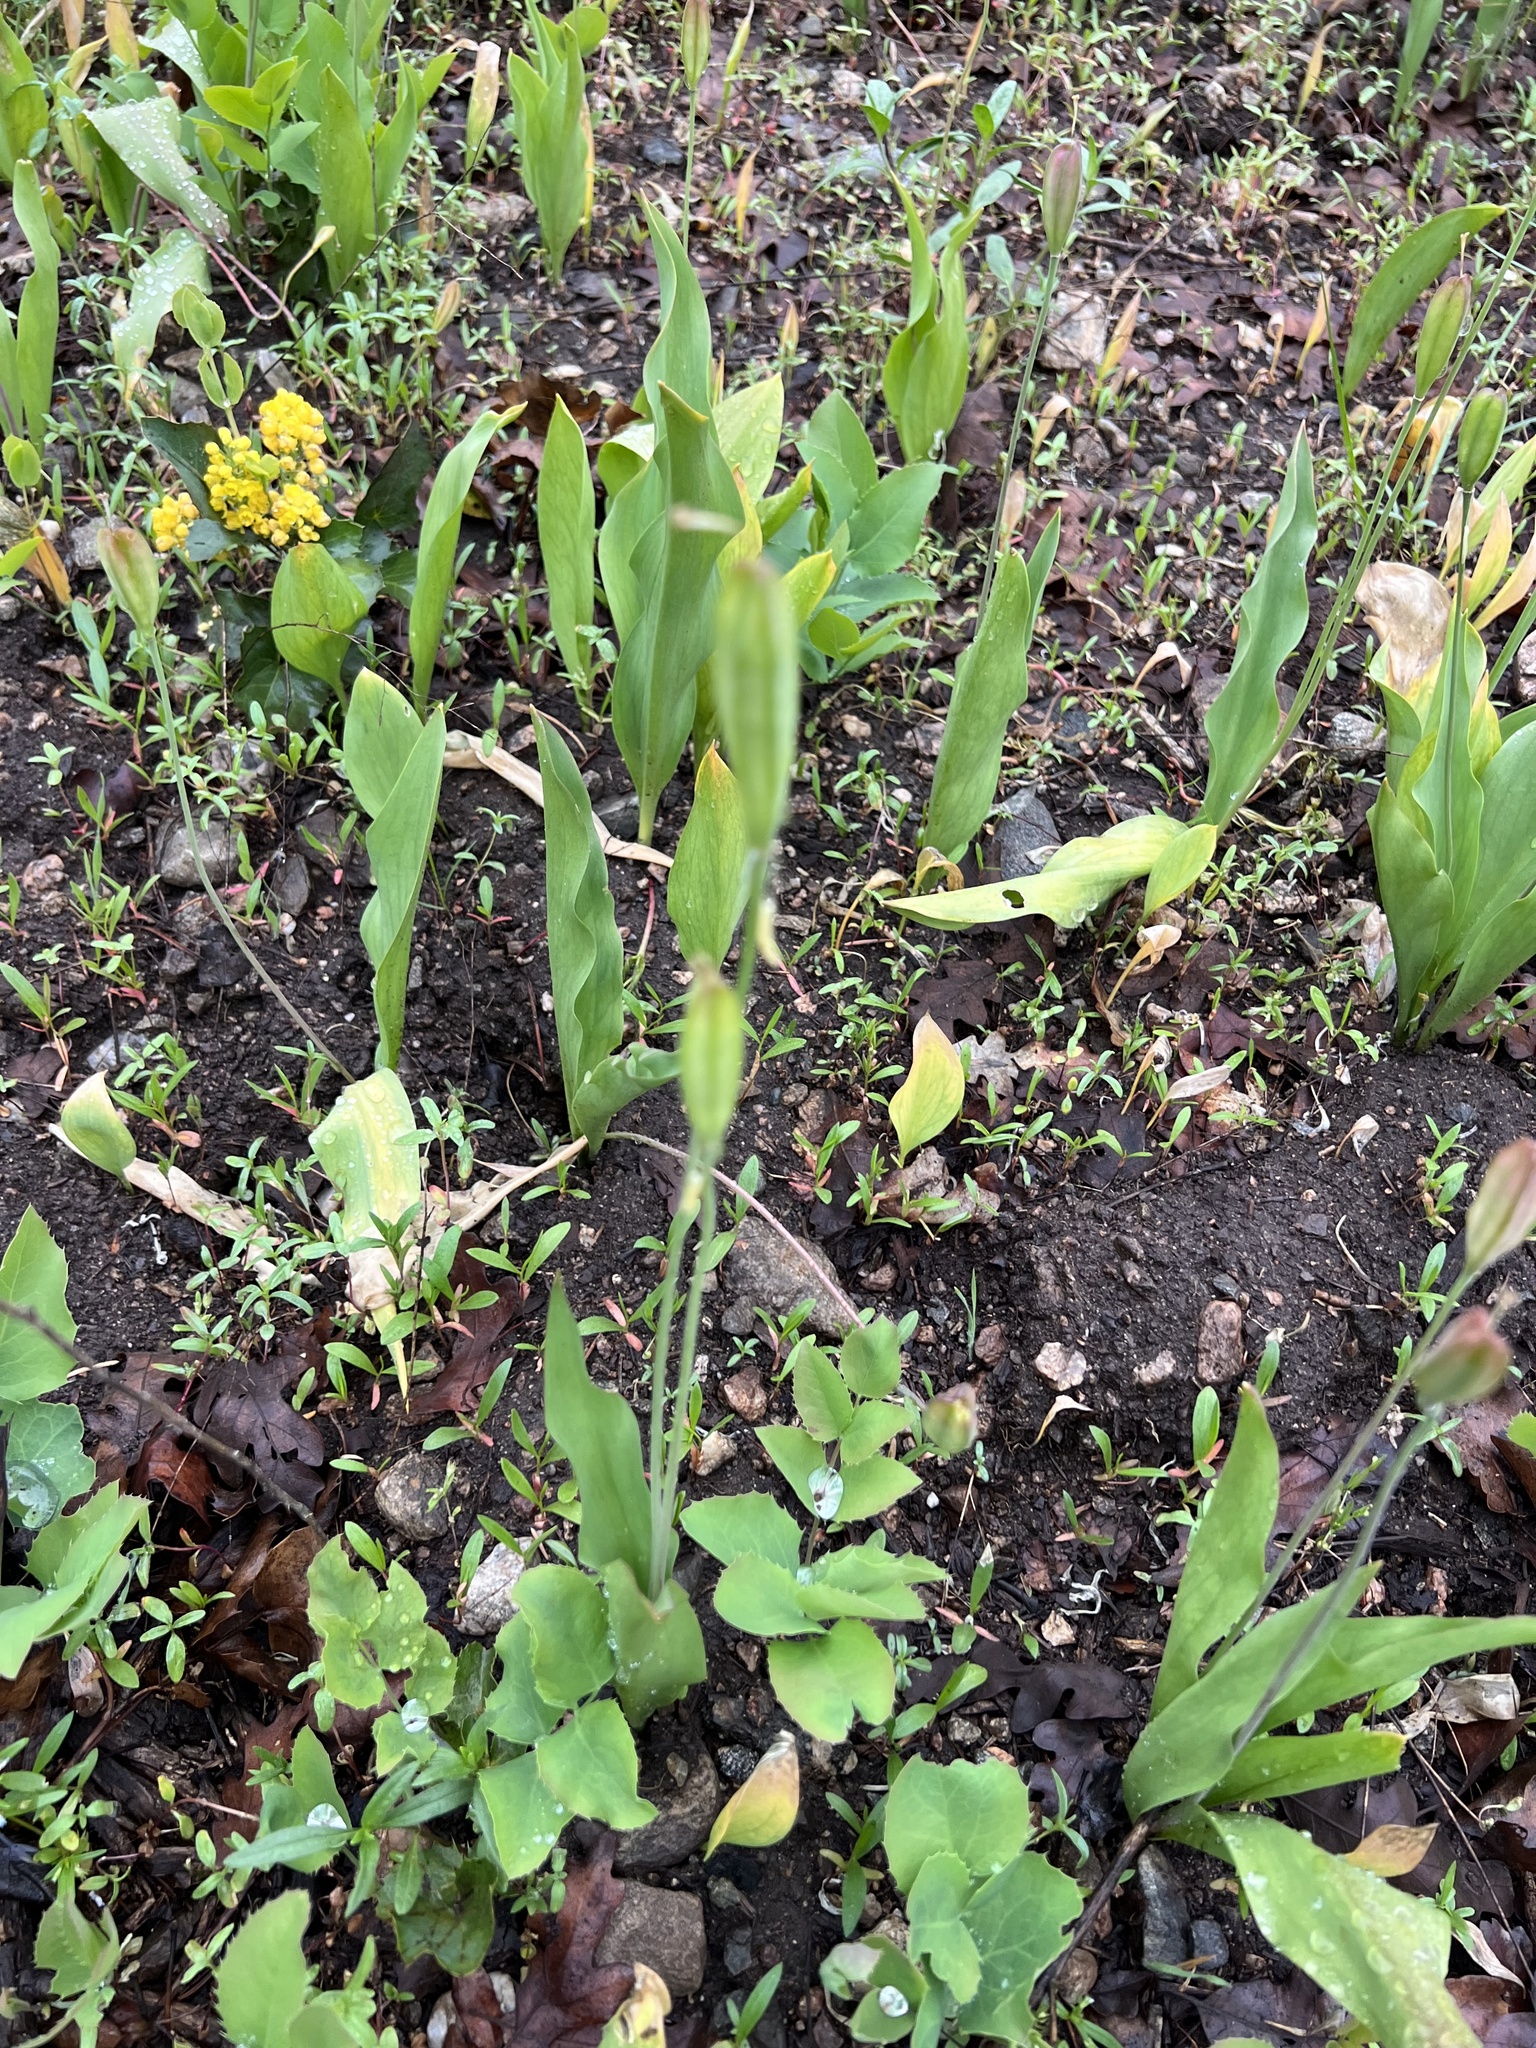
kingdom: Plantae
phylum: Tracheophyta
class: Liliopsida
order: Liliales
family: Liliaceae
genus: Erythronium
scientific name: Erythronium grandiflorum
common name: Avalanche-lily
